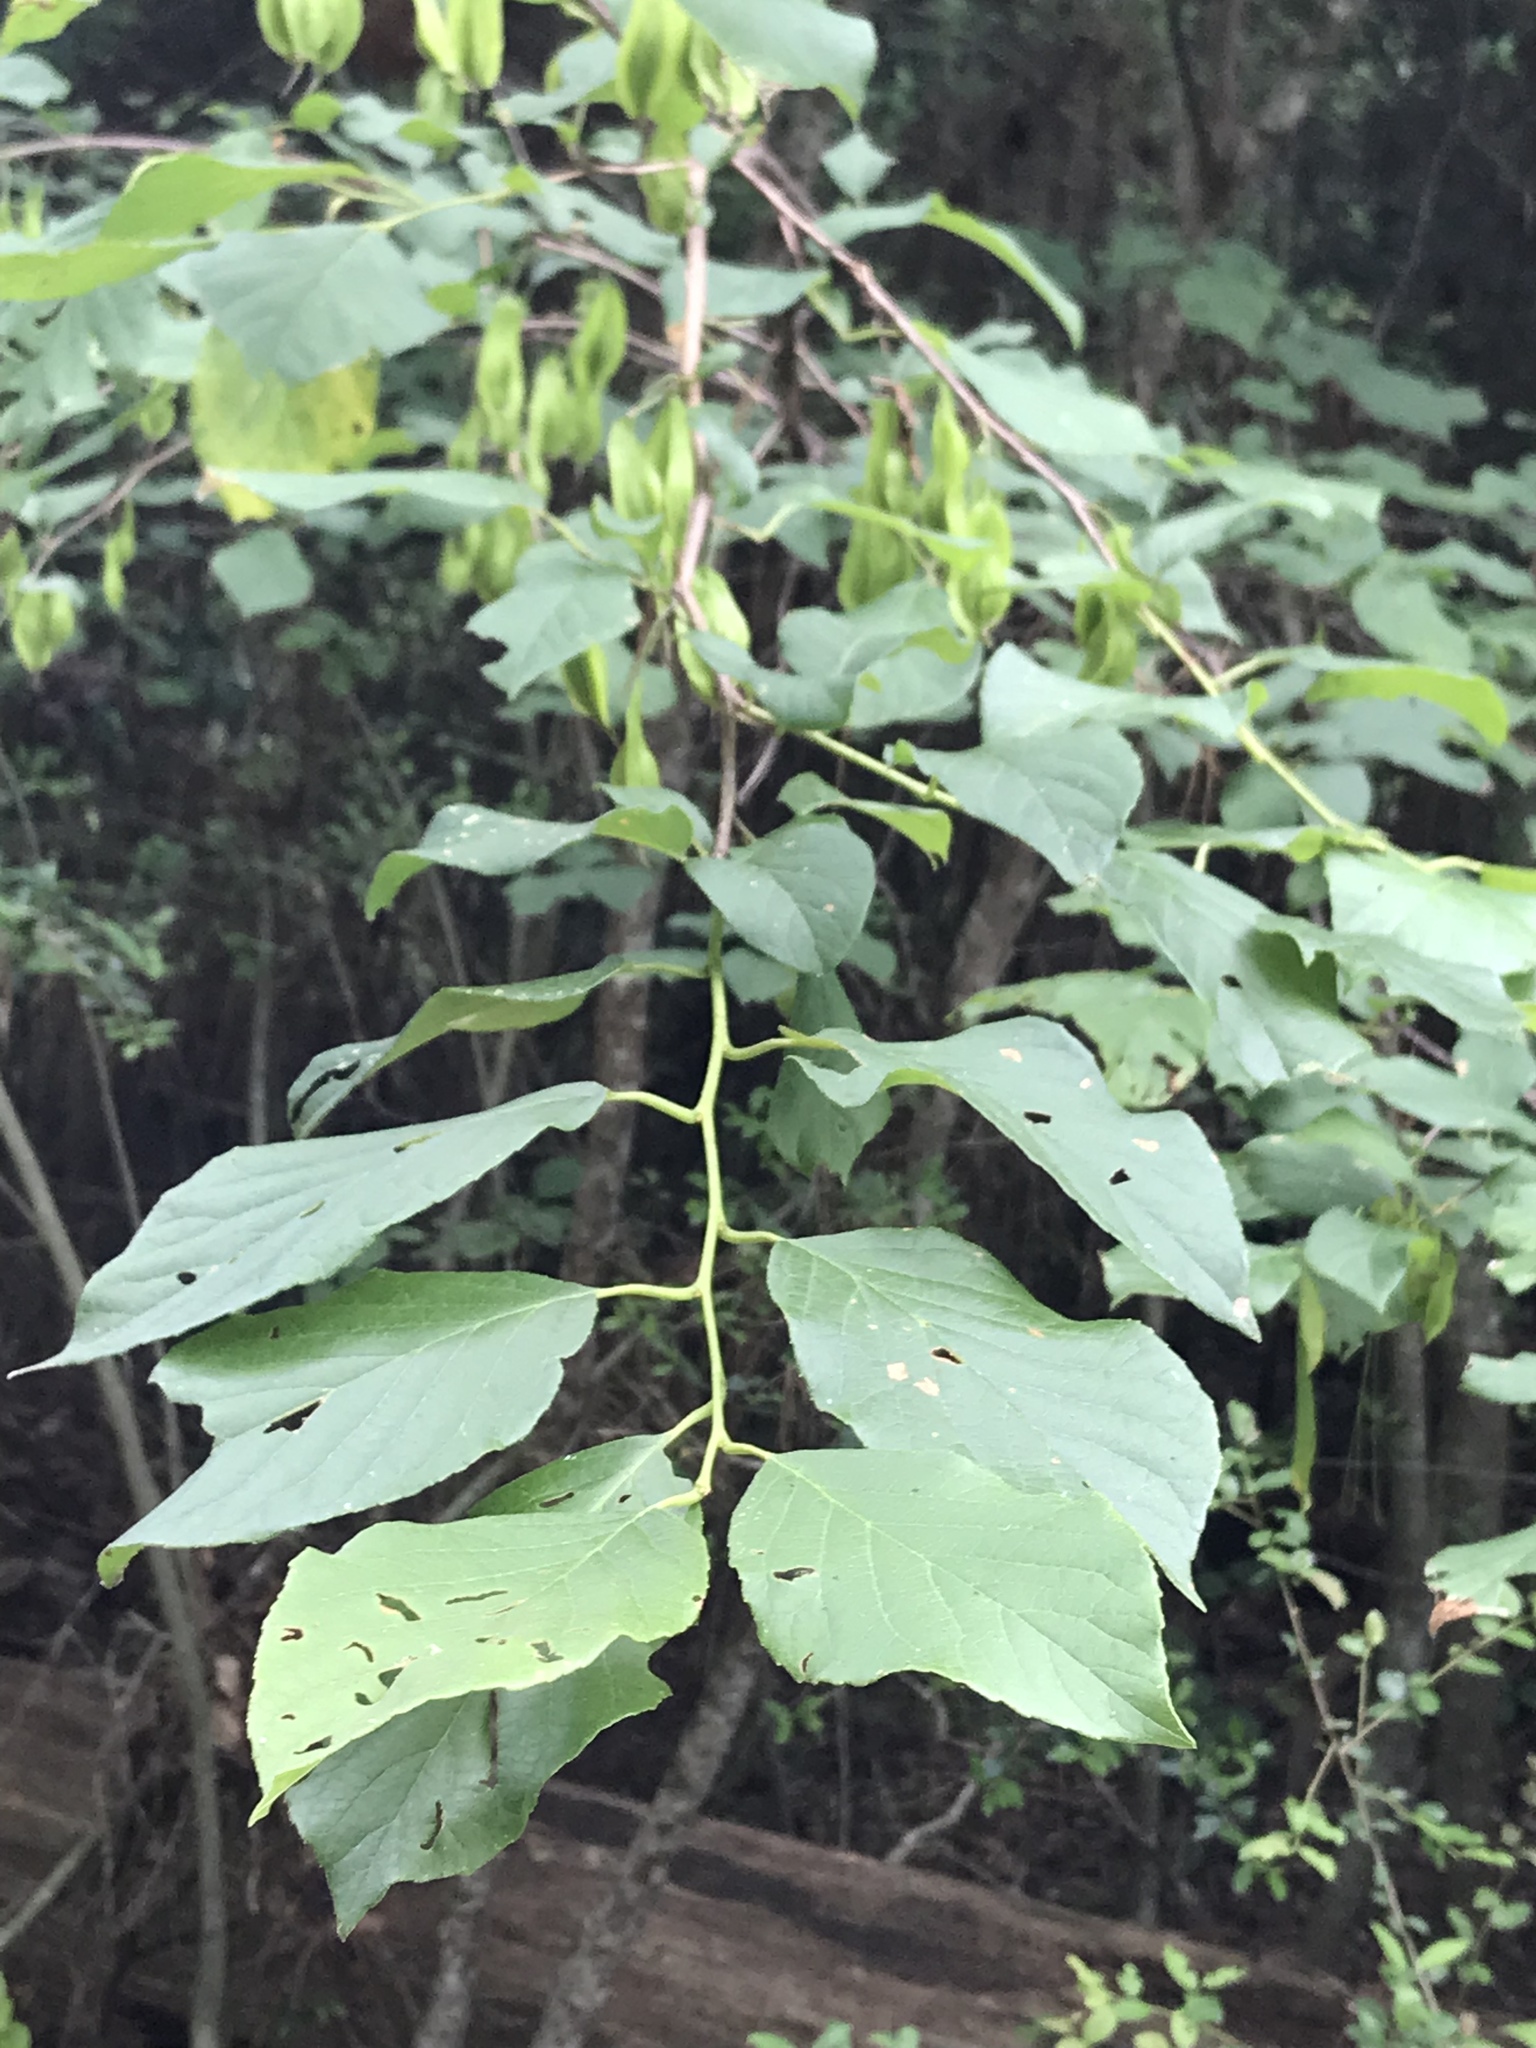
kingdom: Plantae
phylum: Tracheophyta
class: Magnoliopsida
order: Ericales
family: Styracaceae
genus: Halesia
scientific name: Halesia diptera
